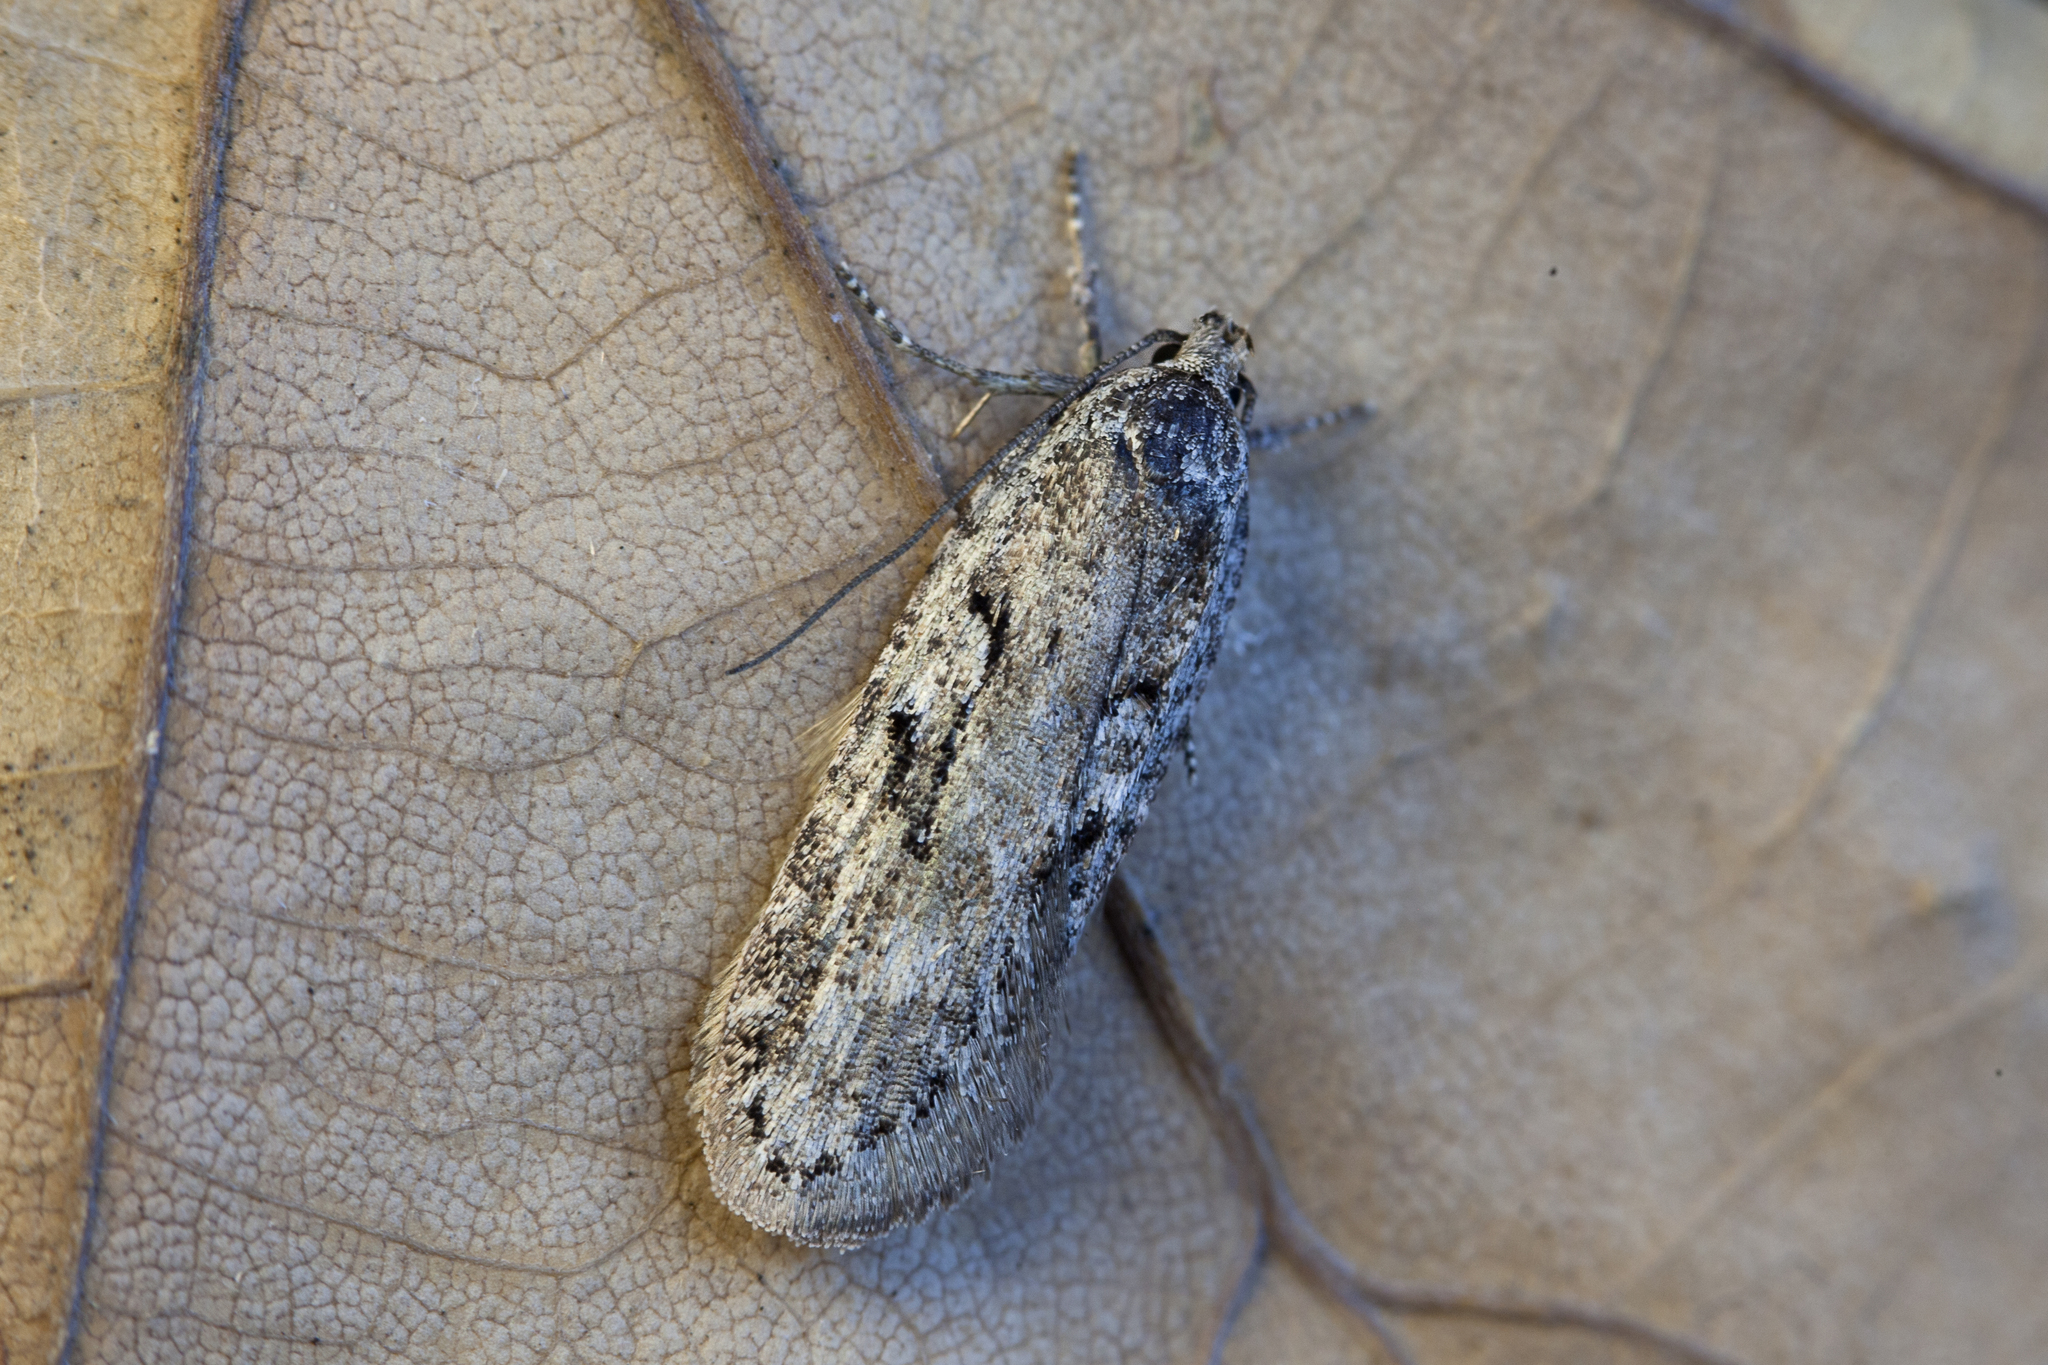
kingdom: Animalia
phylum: Arthropoda
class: Insecta
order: Lepidoptera
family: Depressariidae
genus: Exaeretia
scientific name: Exaeretia ciniflonella
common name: Scotch flat-body
